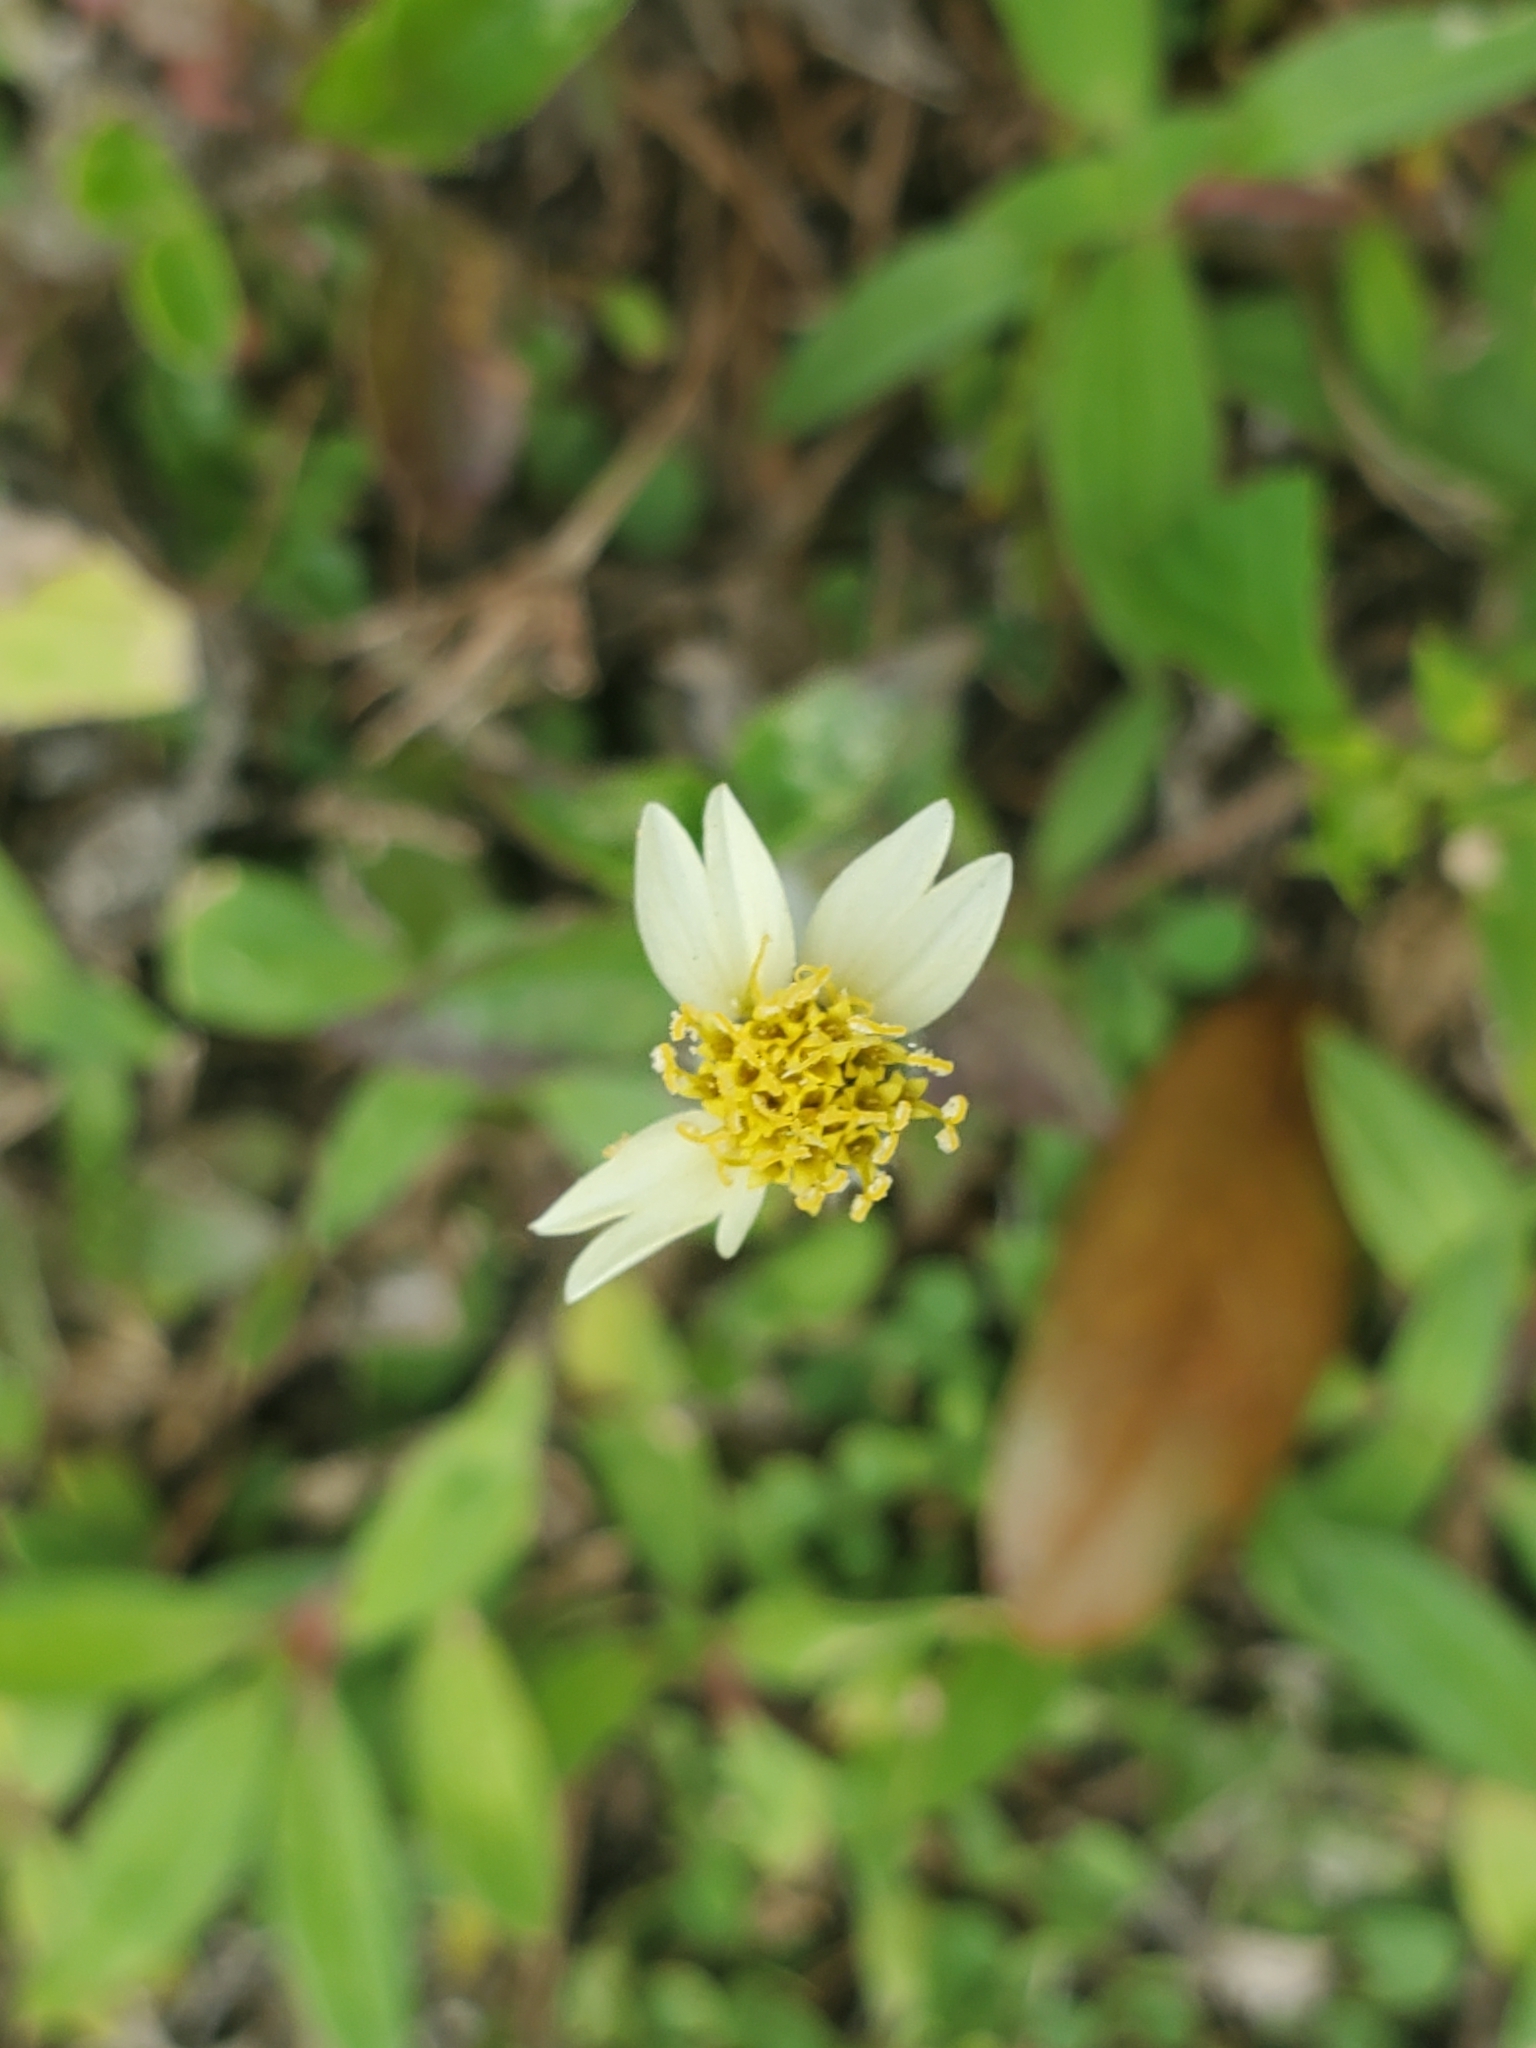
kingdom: Plantae
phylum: Tracheophyta
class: Magnoliopsida
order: Asterales
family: Asteraceae
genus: Tridax
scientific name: Tridax procumbens
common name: Coatbuttons
